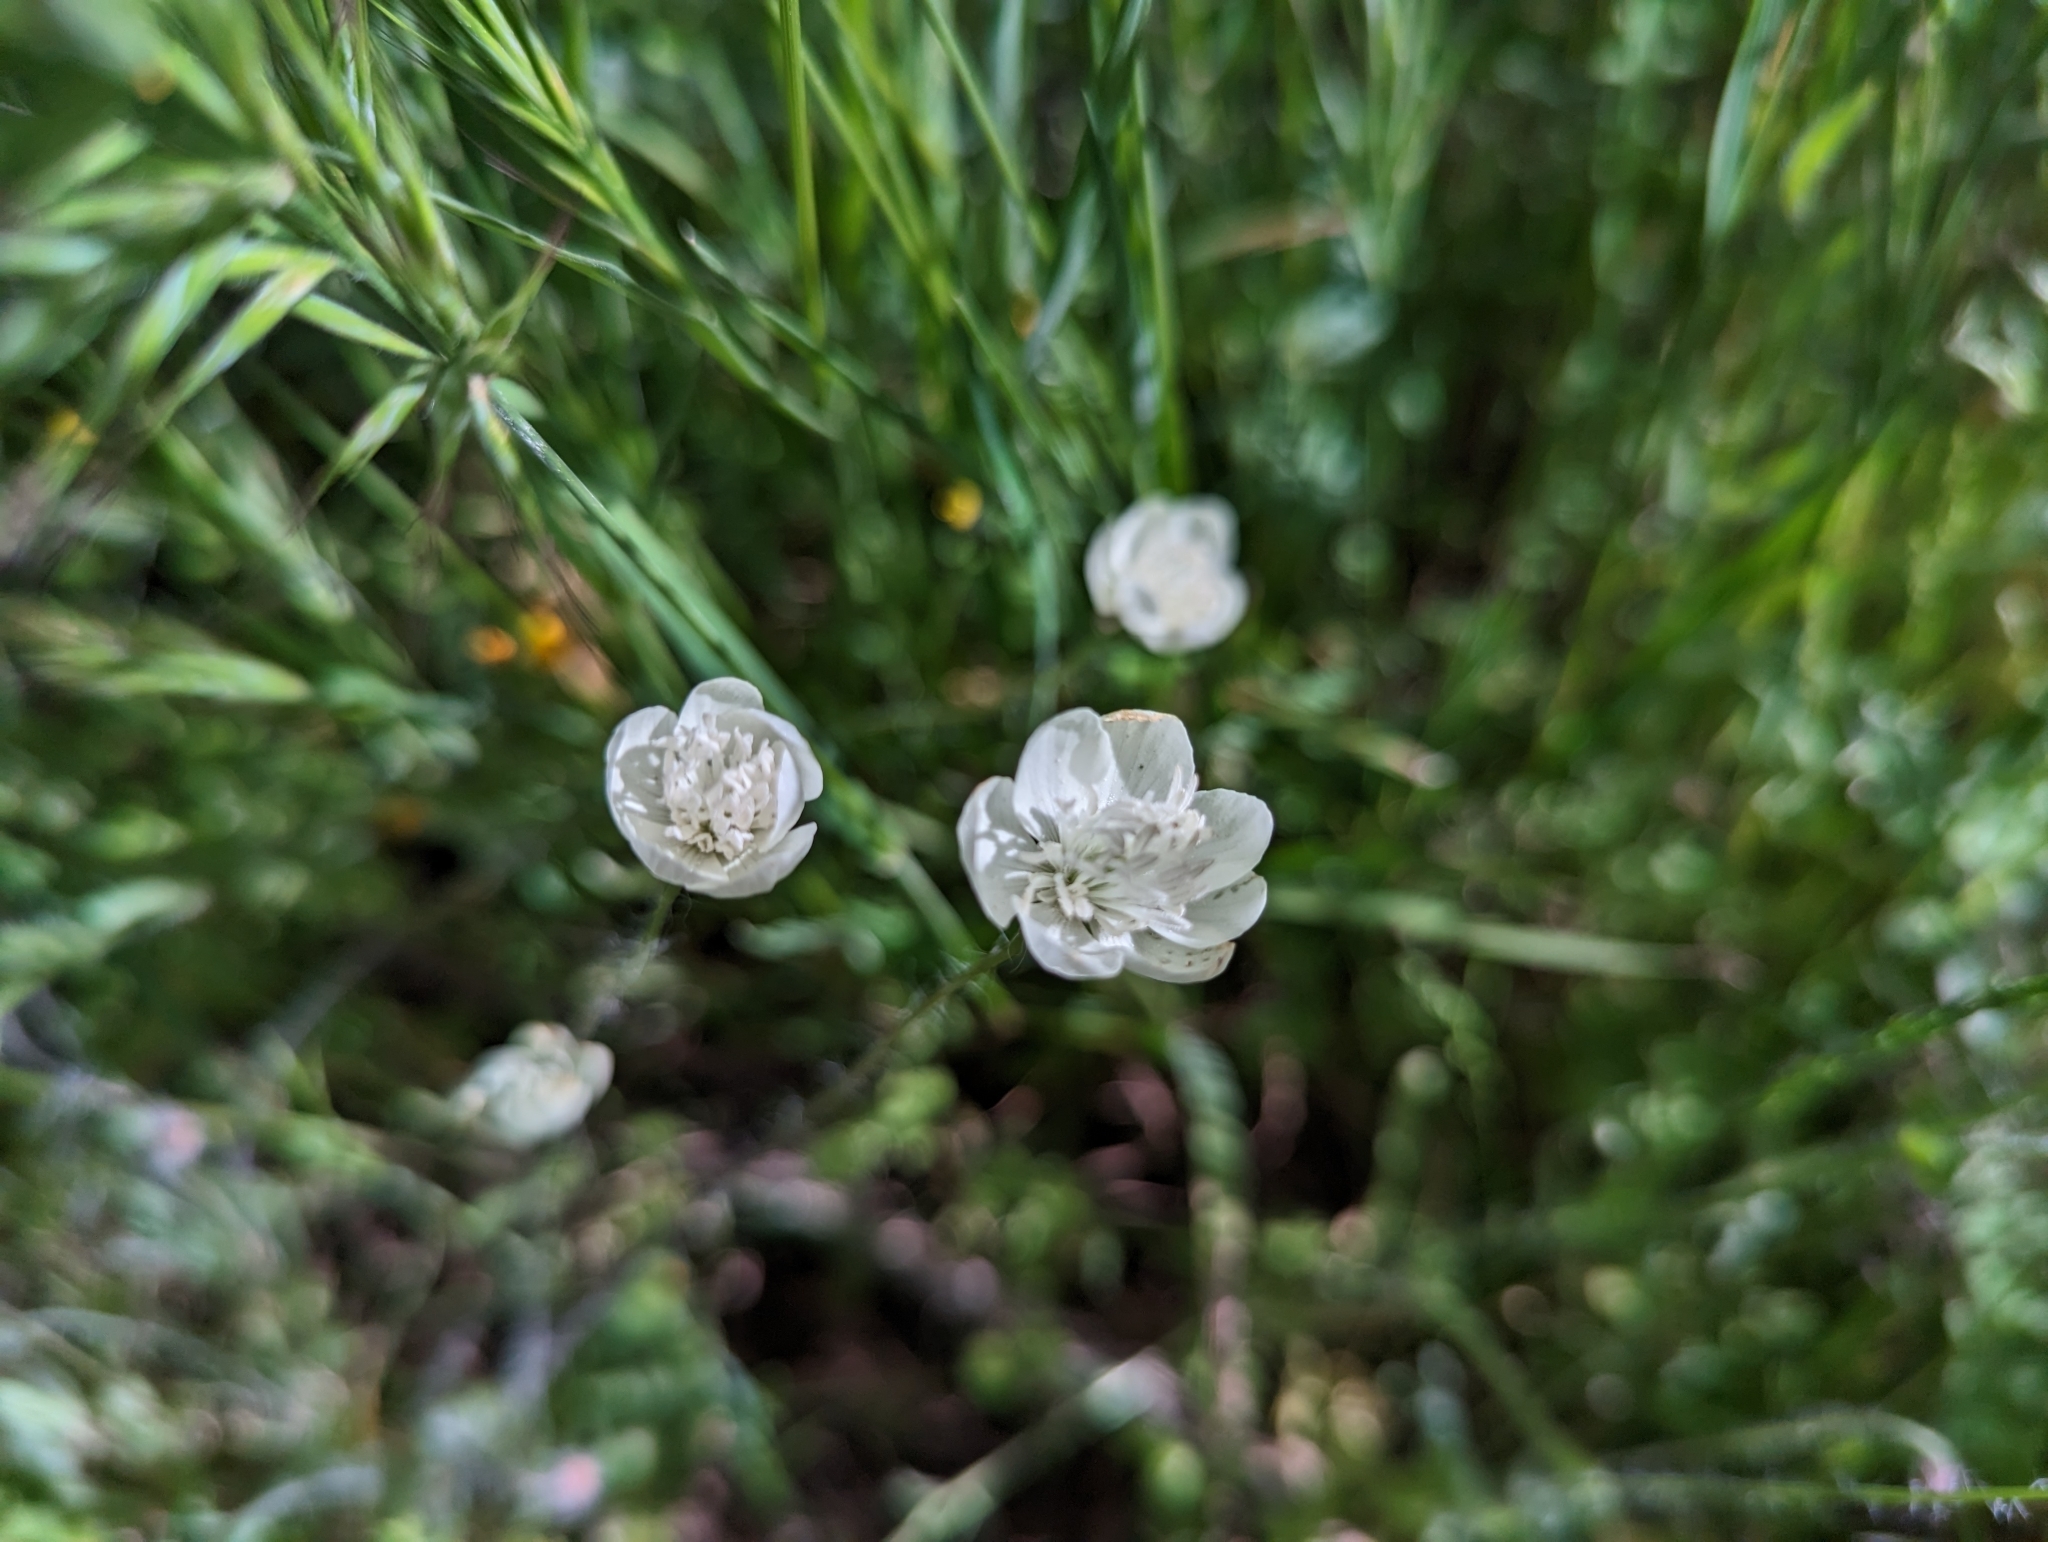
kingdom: Plantae
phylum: Tracheophyta
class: Magnoliopsida
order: Ranunculales
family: Papaveraceae
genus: Platystemon
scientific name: Platystemon californicus
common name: Cream-cups
